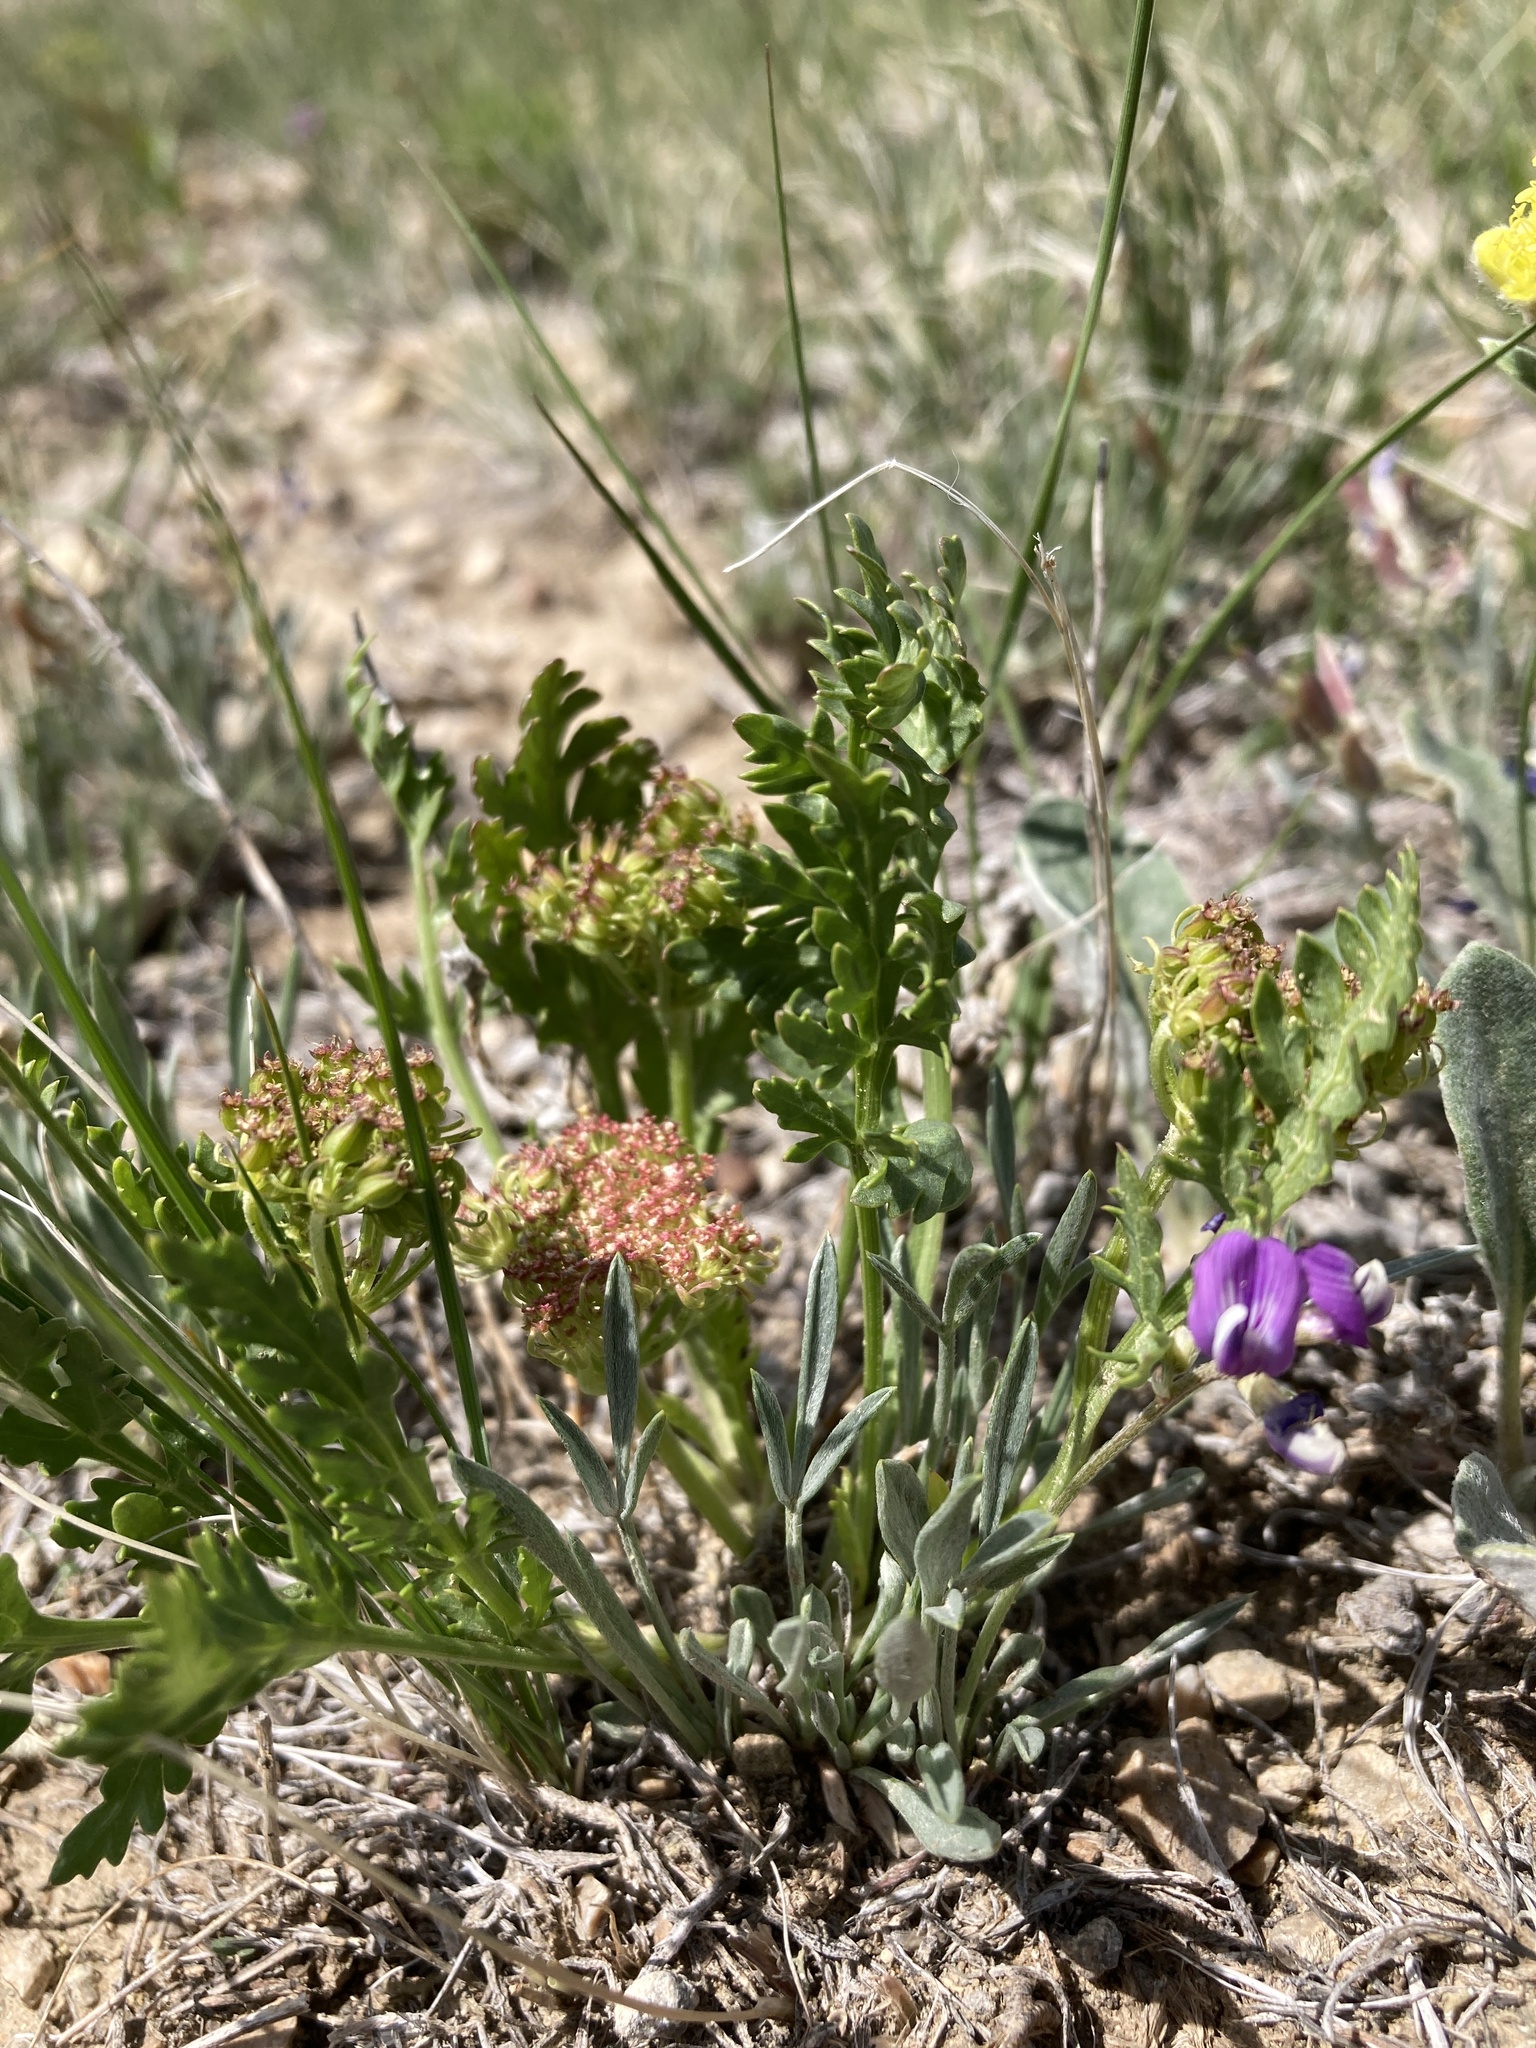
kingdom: Plantae
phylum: Tracheophyta
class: Magnoliopsida
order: Apiales
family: Apiaceae
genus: Musineon
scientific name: Musineon divaricatum
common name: Plains musineon
